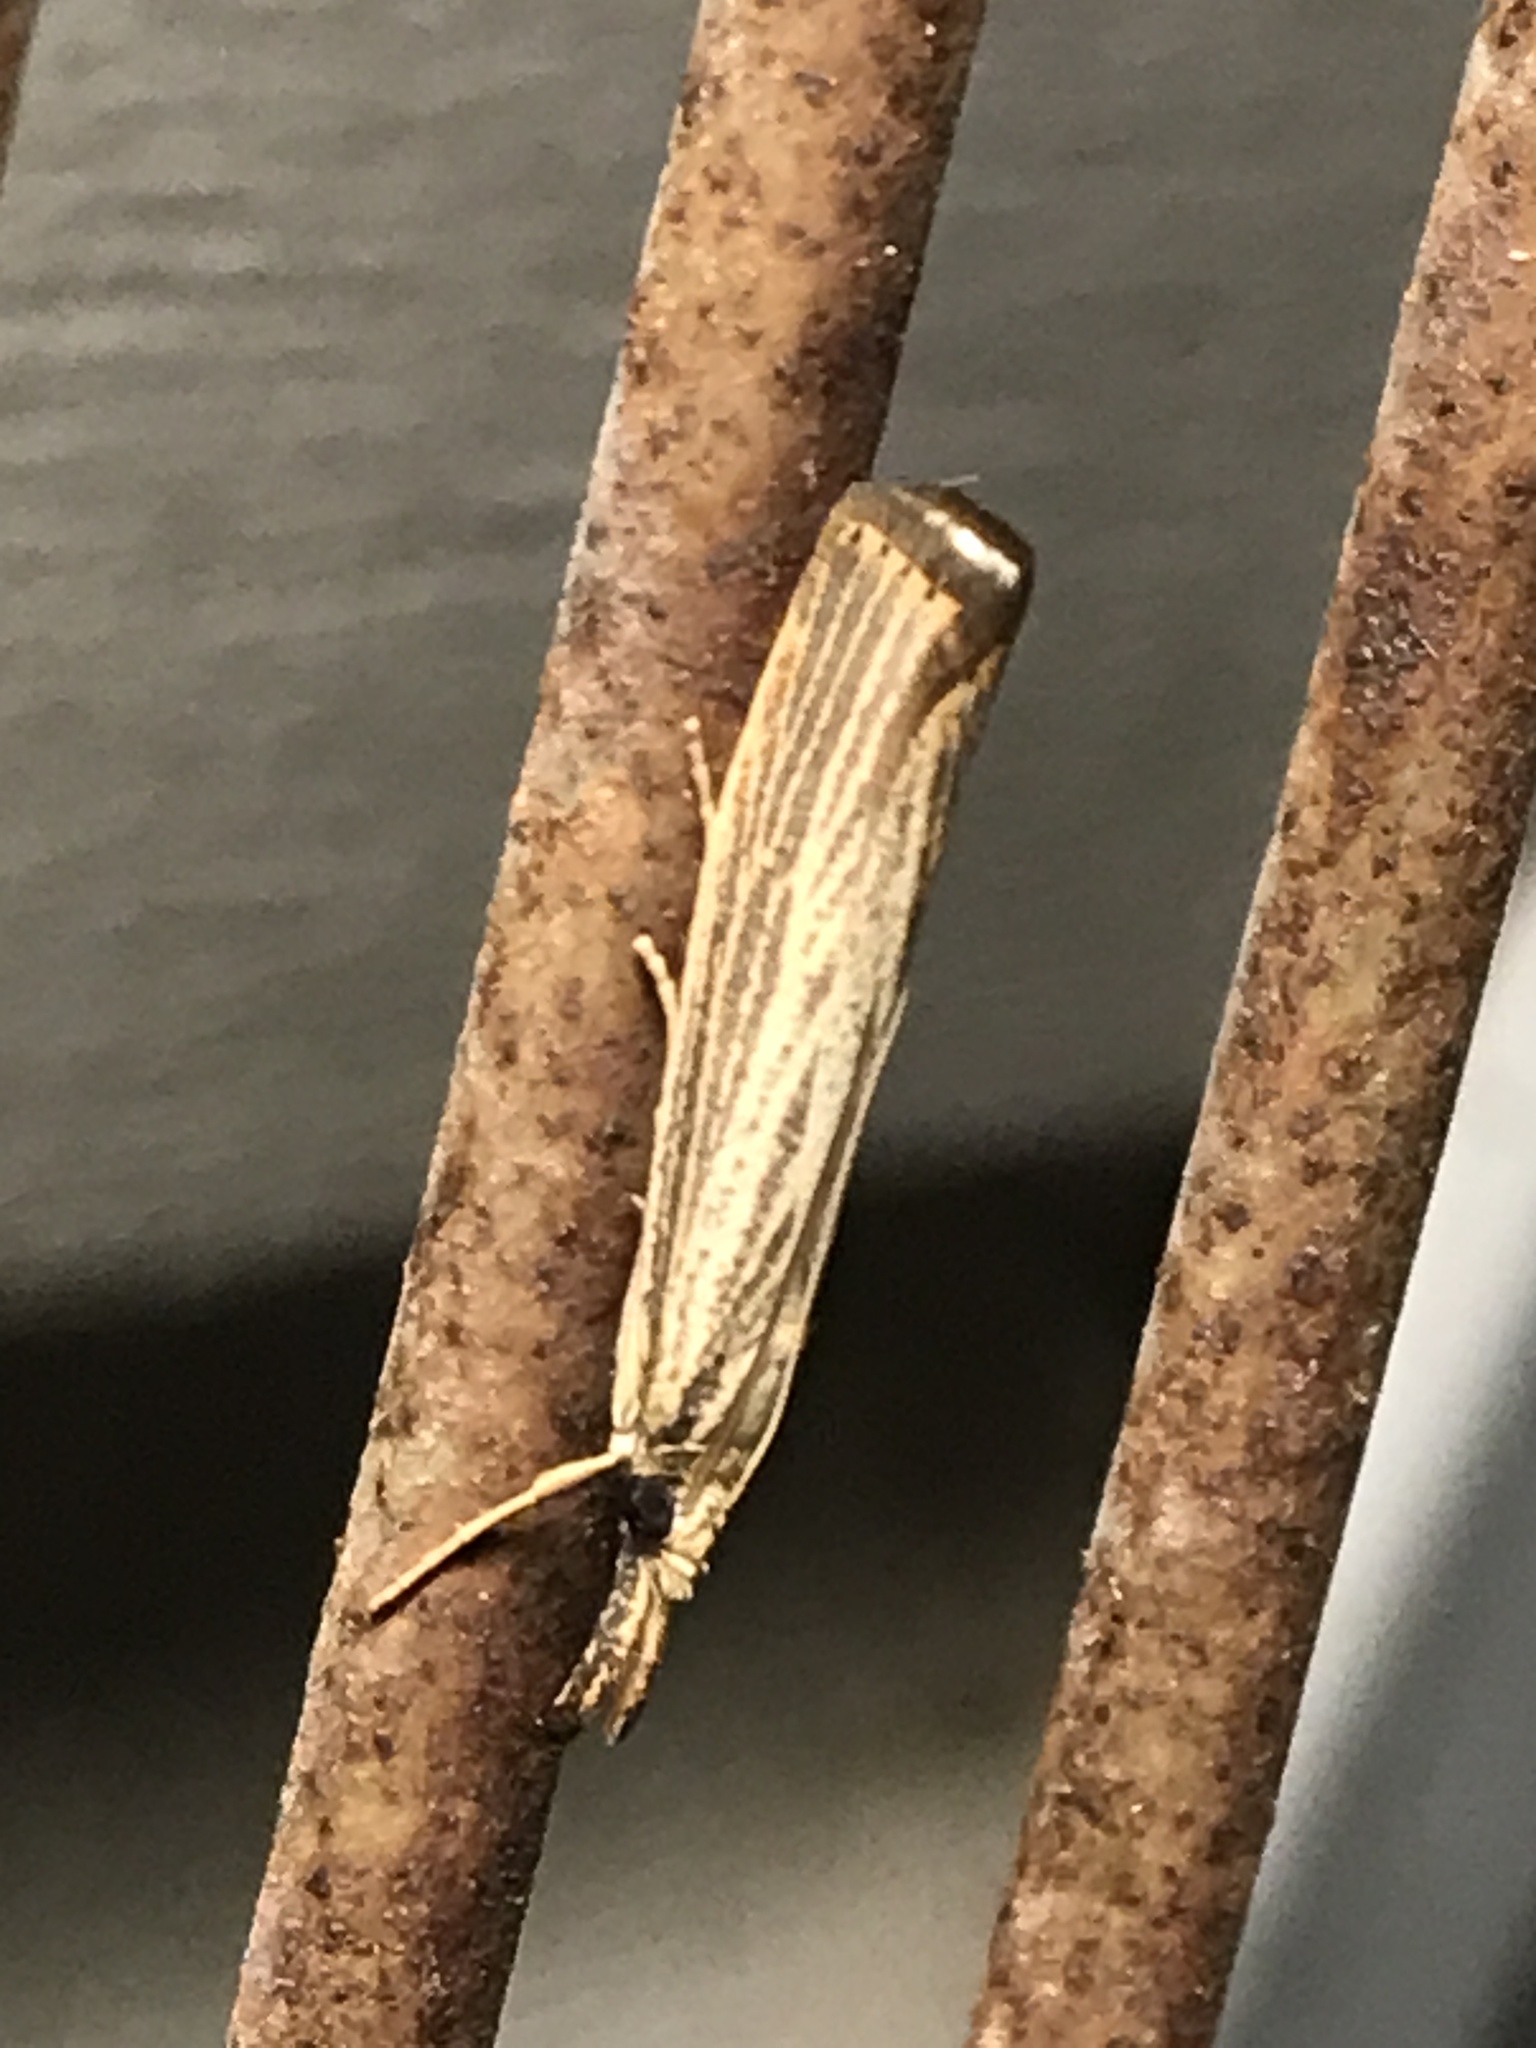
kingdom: Animalia
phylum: Arthropoda
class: Insecta
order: Lepidoptera
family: Crambidae
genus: Agriphila
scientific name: Agriphila vulgivagellus
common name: Vagabond crambus moth
